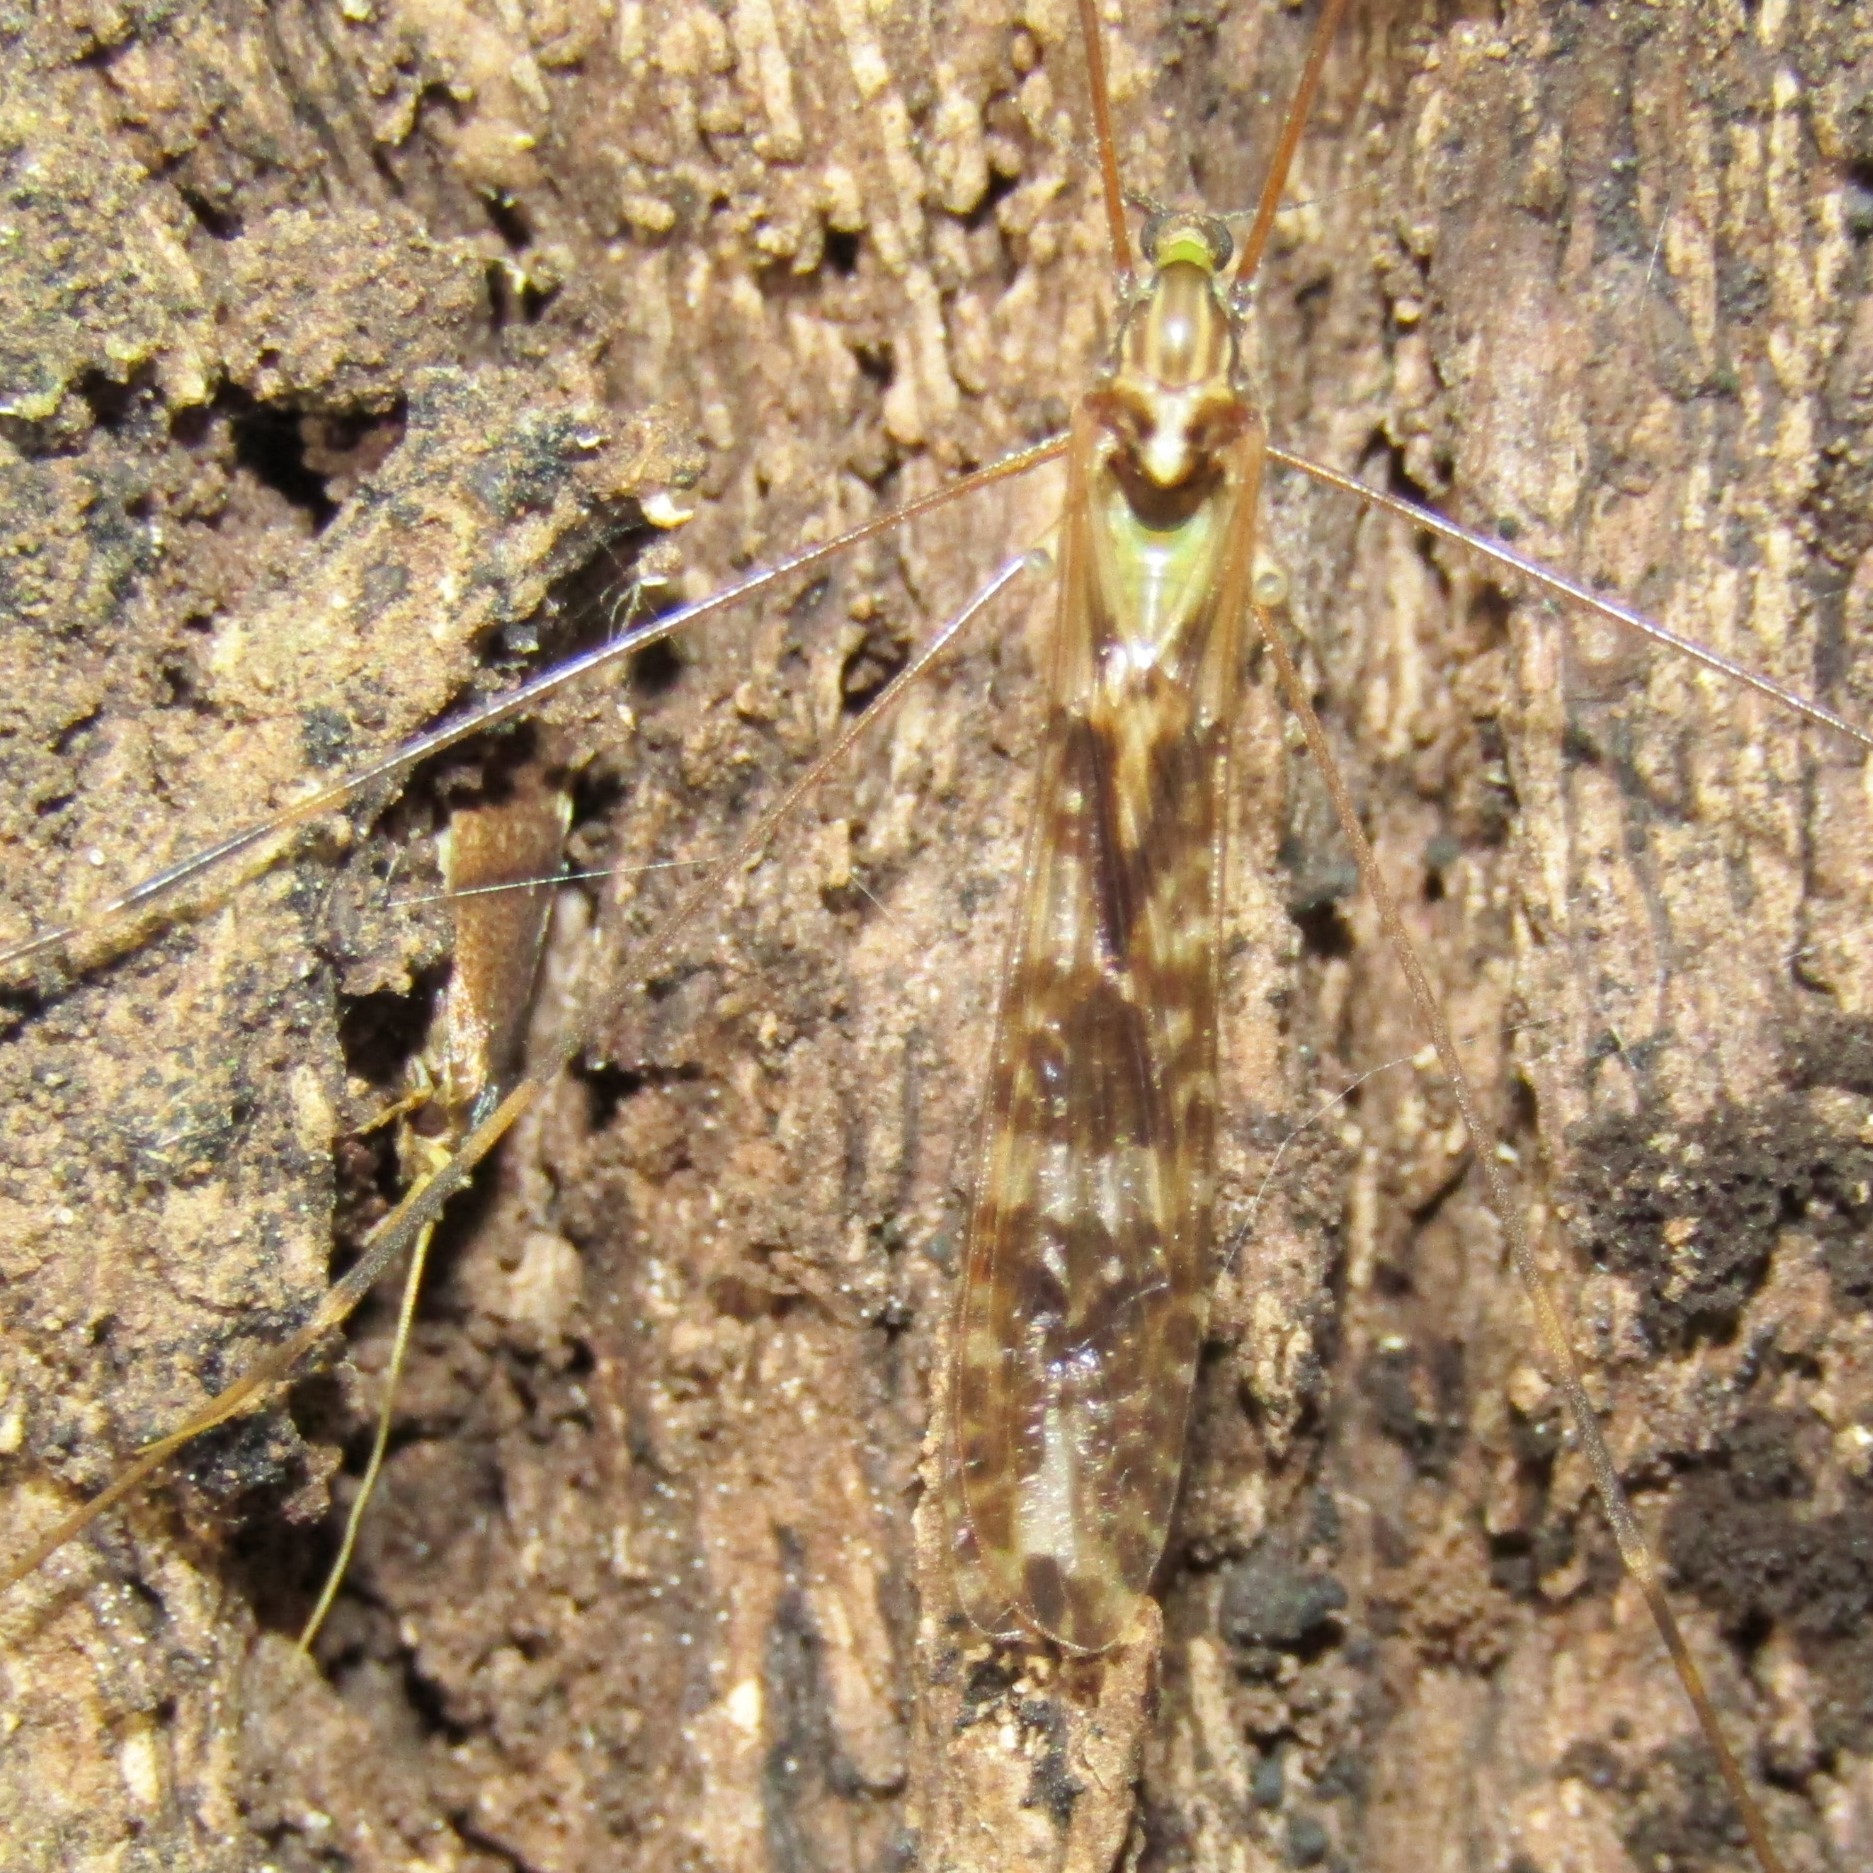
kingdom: Animalia
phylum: Arthropoda
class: Insecta
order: Diptera
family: Limoniidae
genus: Discobola
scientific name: Discobola dohrni
